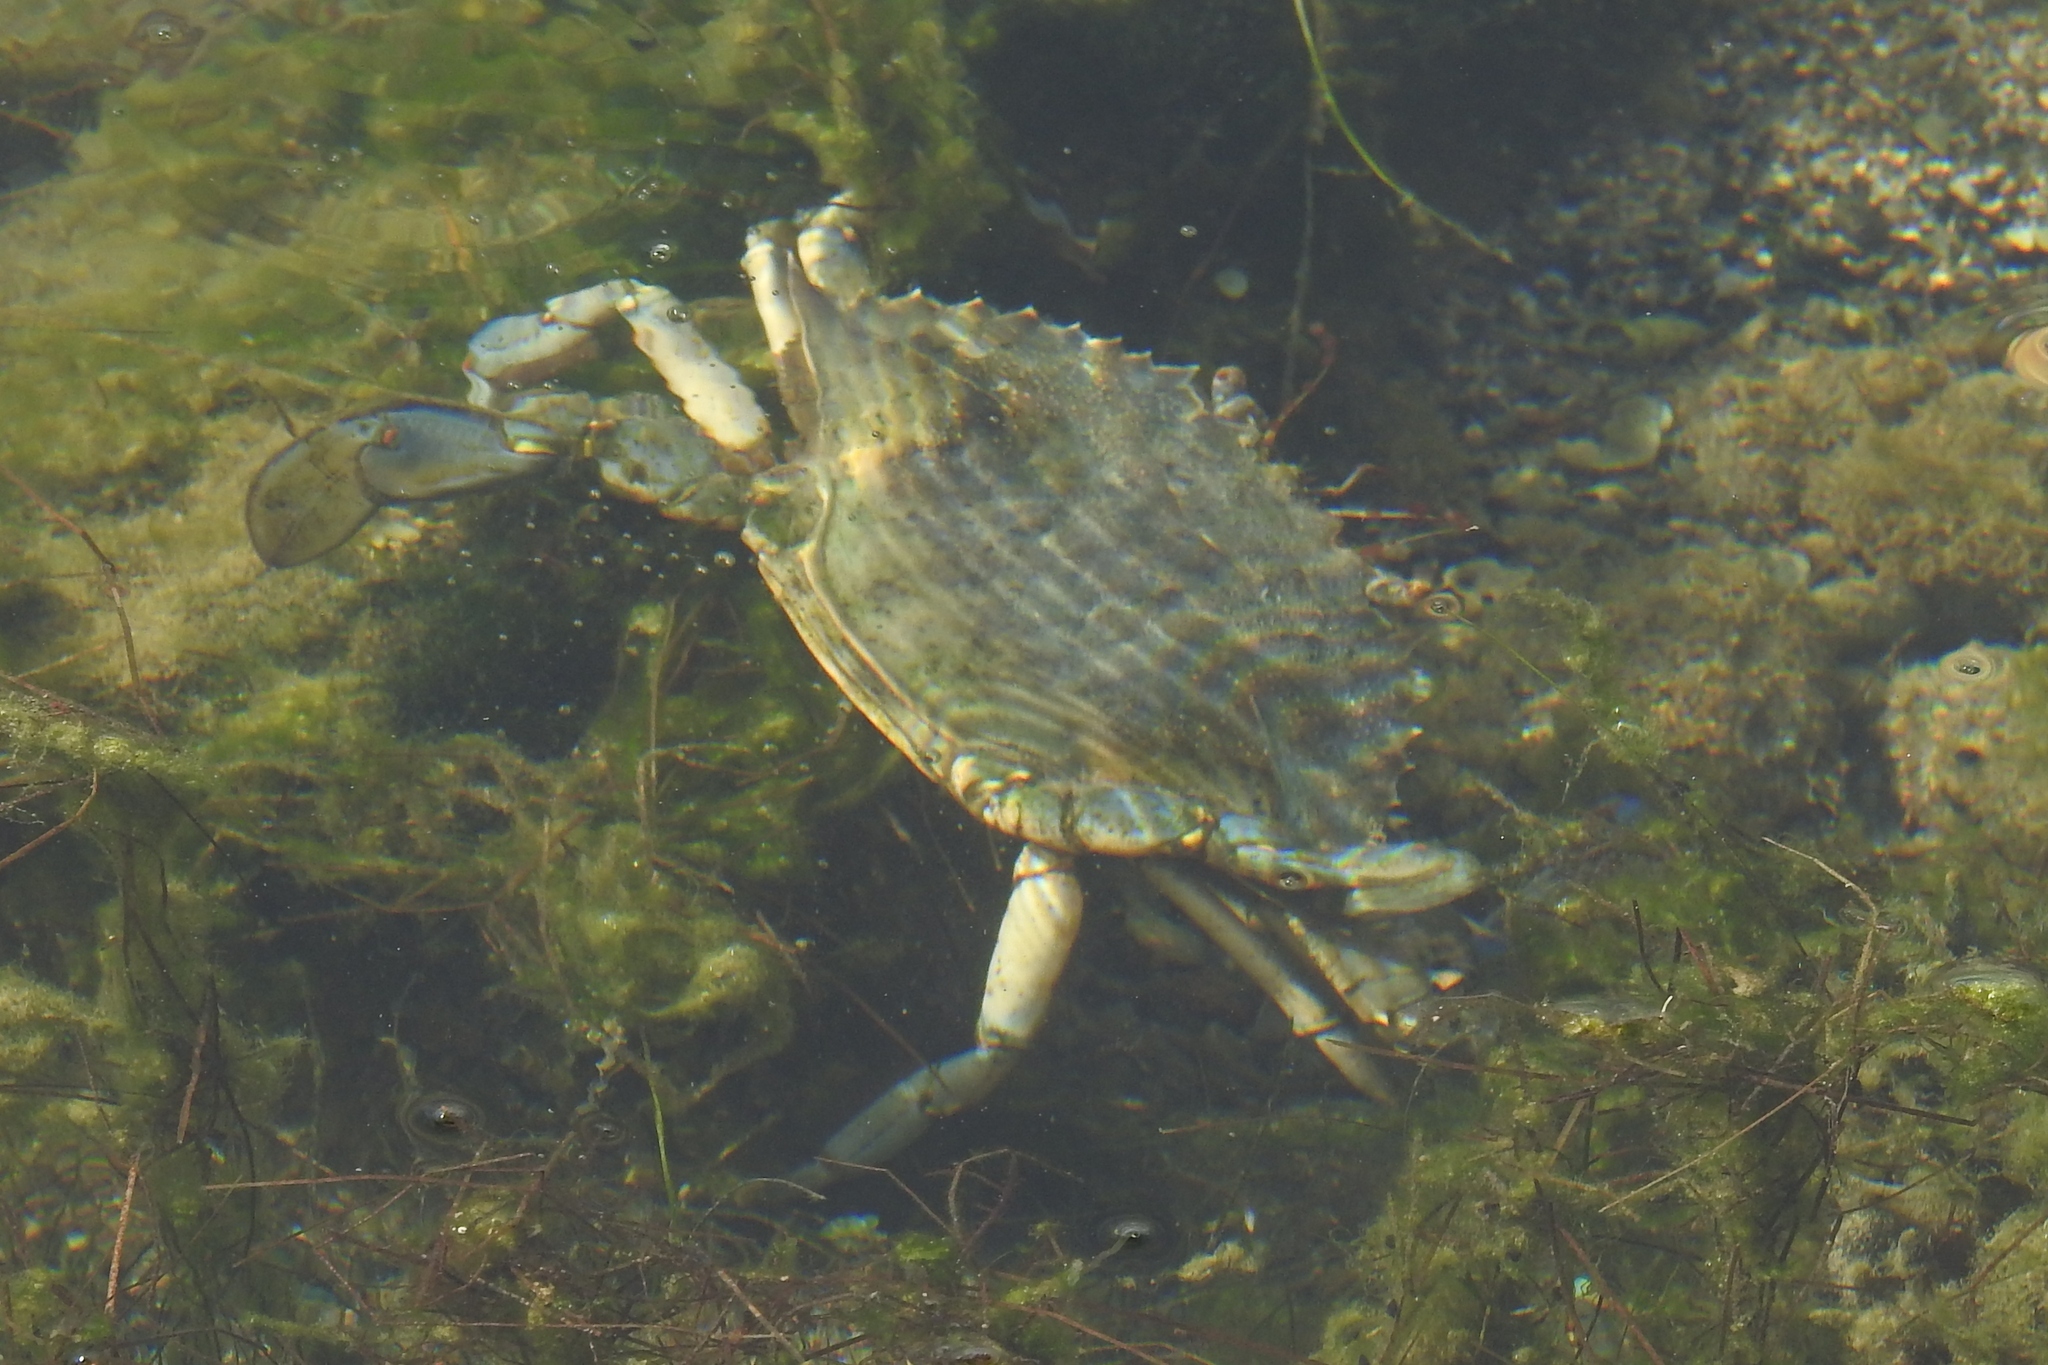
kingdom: Animalia
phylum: Arthropoda
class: Malacostraca
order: Decapoda
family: Portunidae
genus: Callinectes
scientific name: Callinectes sapidus
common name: Blue crab
